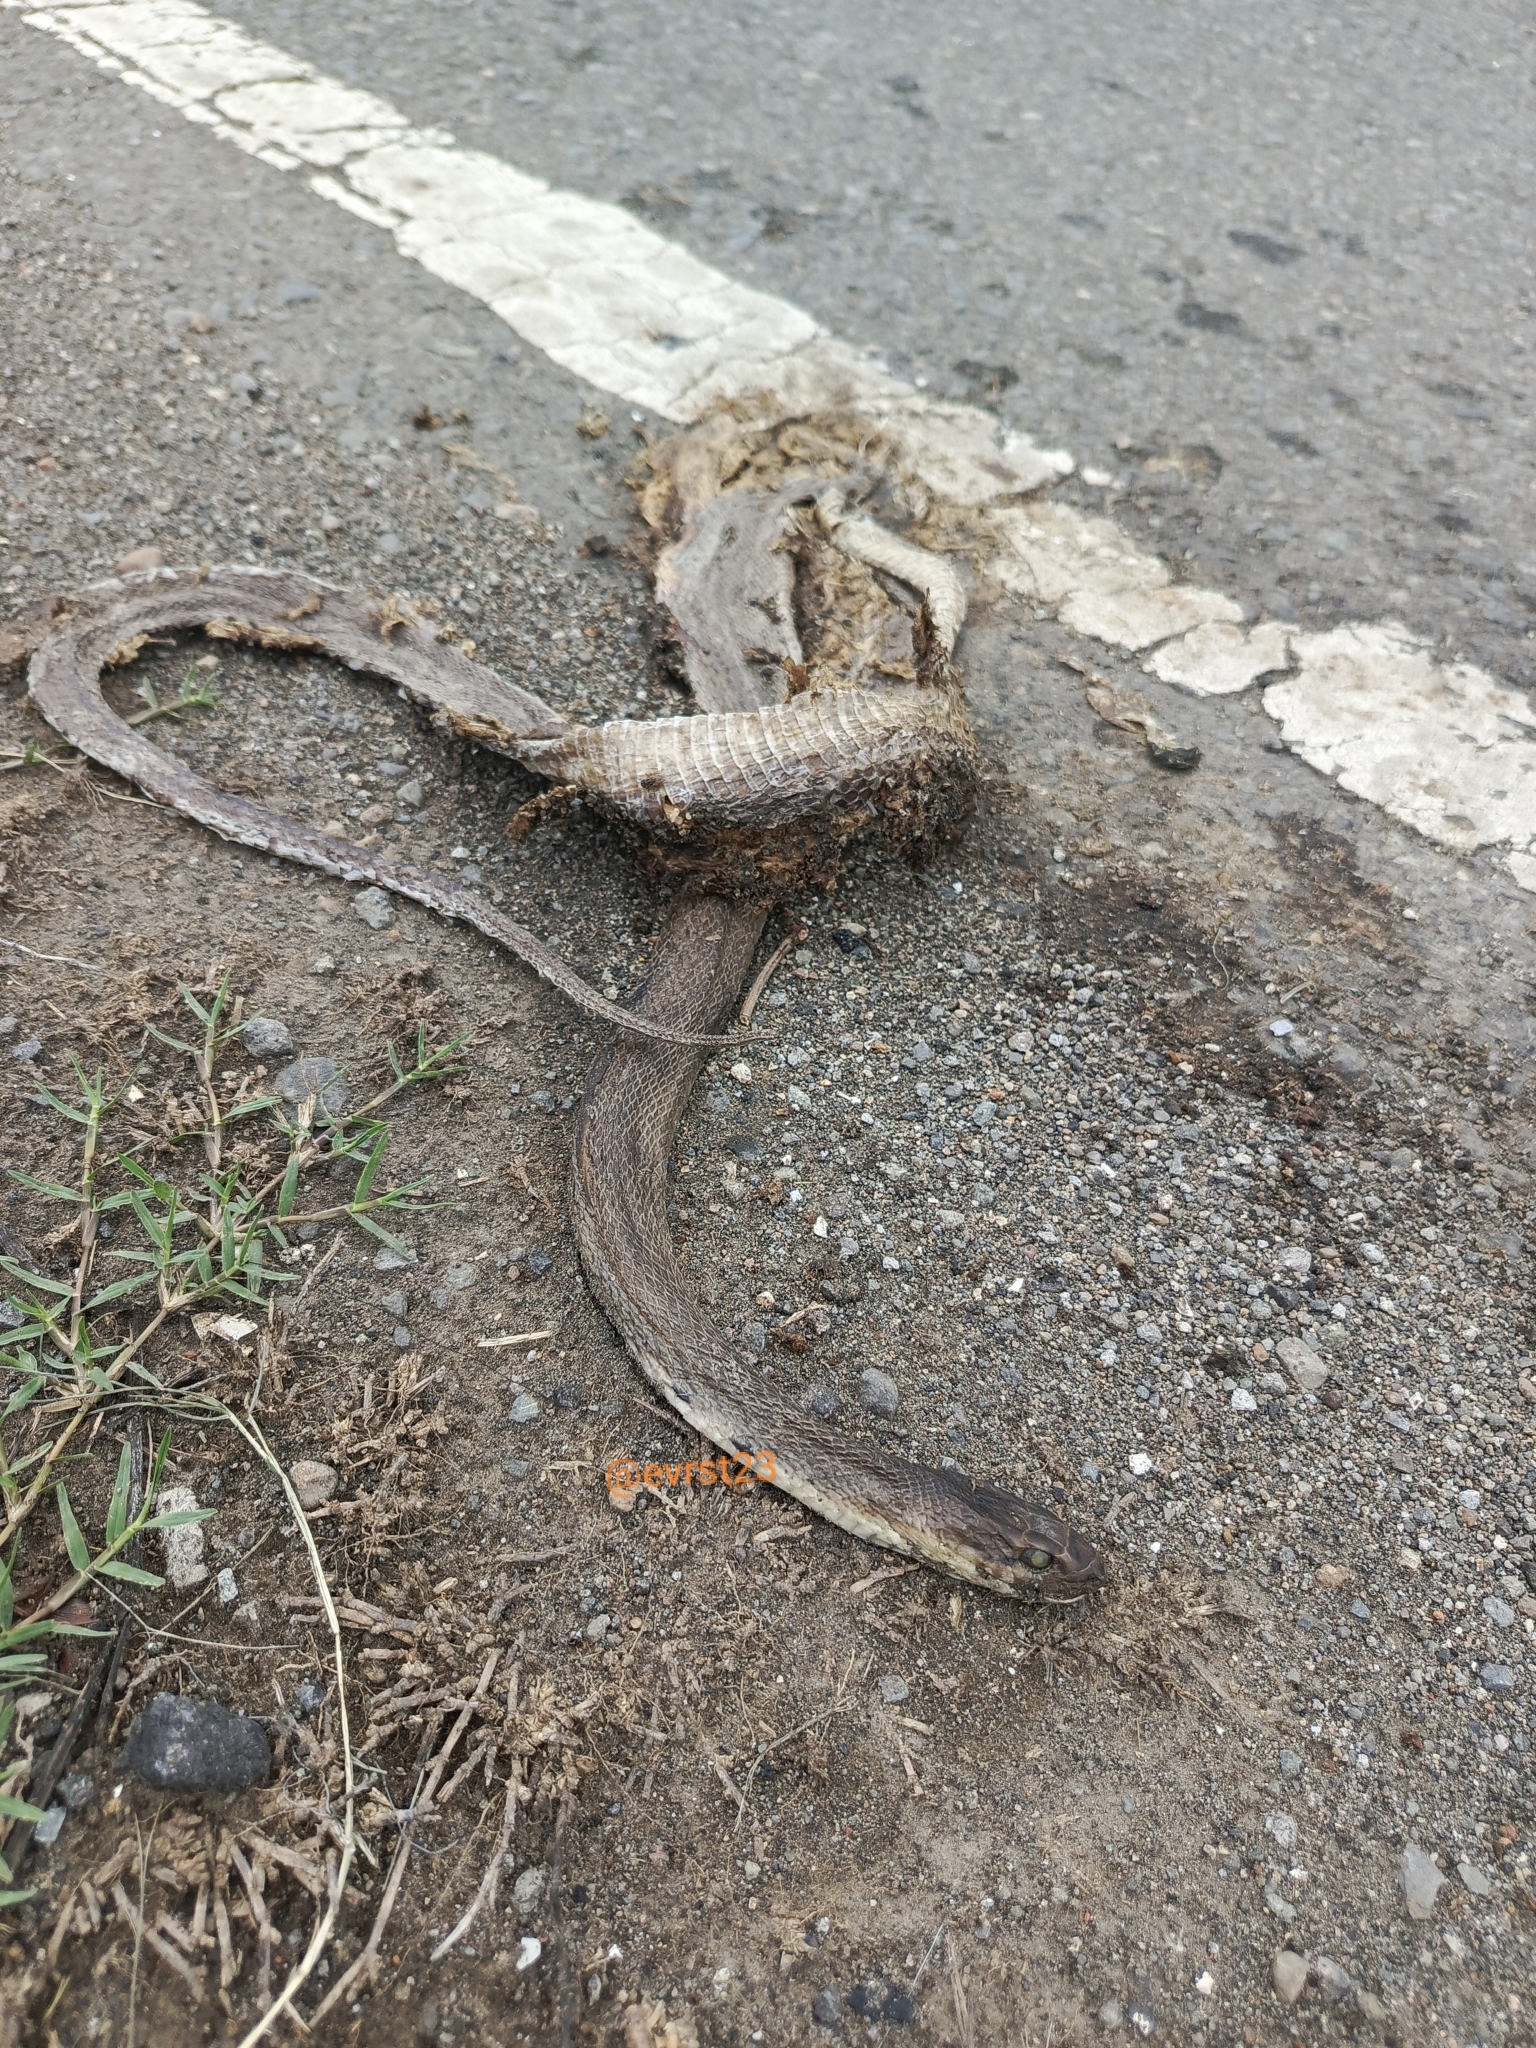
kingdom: Animalia
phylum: Chordata
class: Squamata
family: Colubridae
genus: Coelognathus
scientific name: Coelognathus subradiatus
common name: Sunda rat snake
